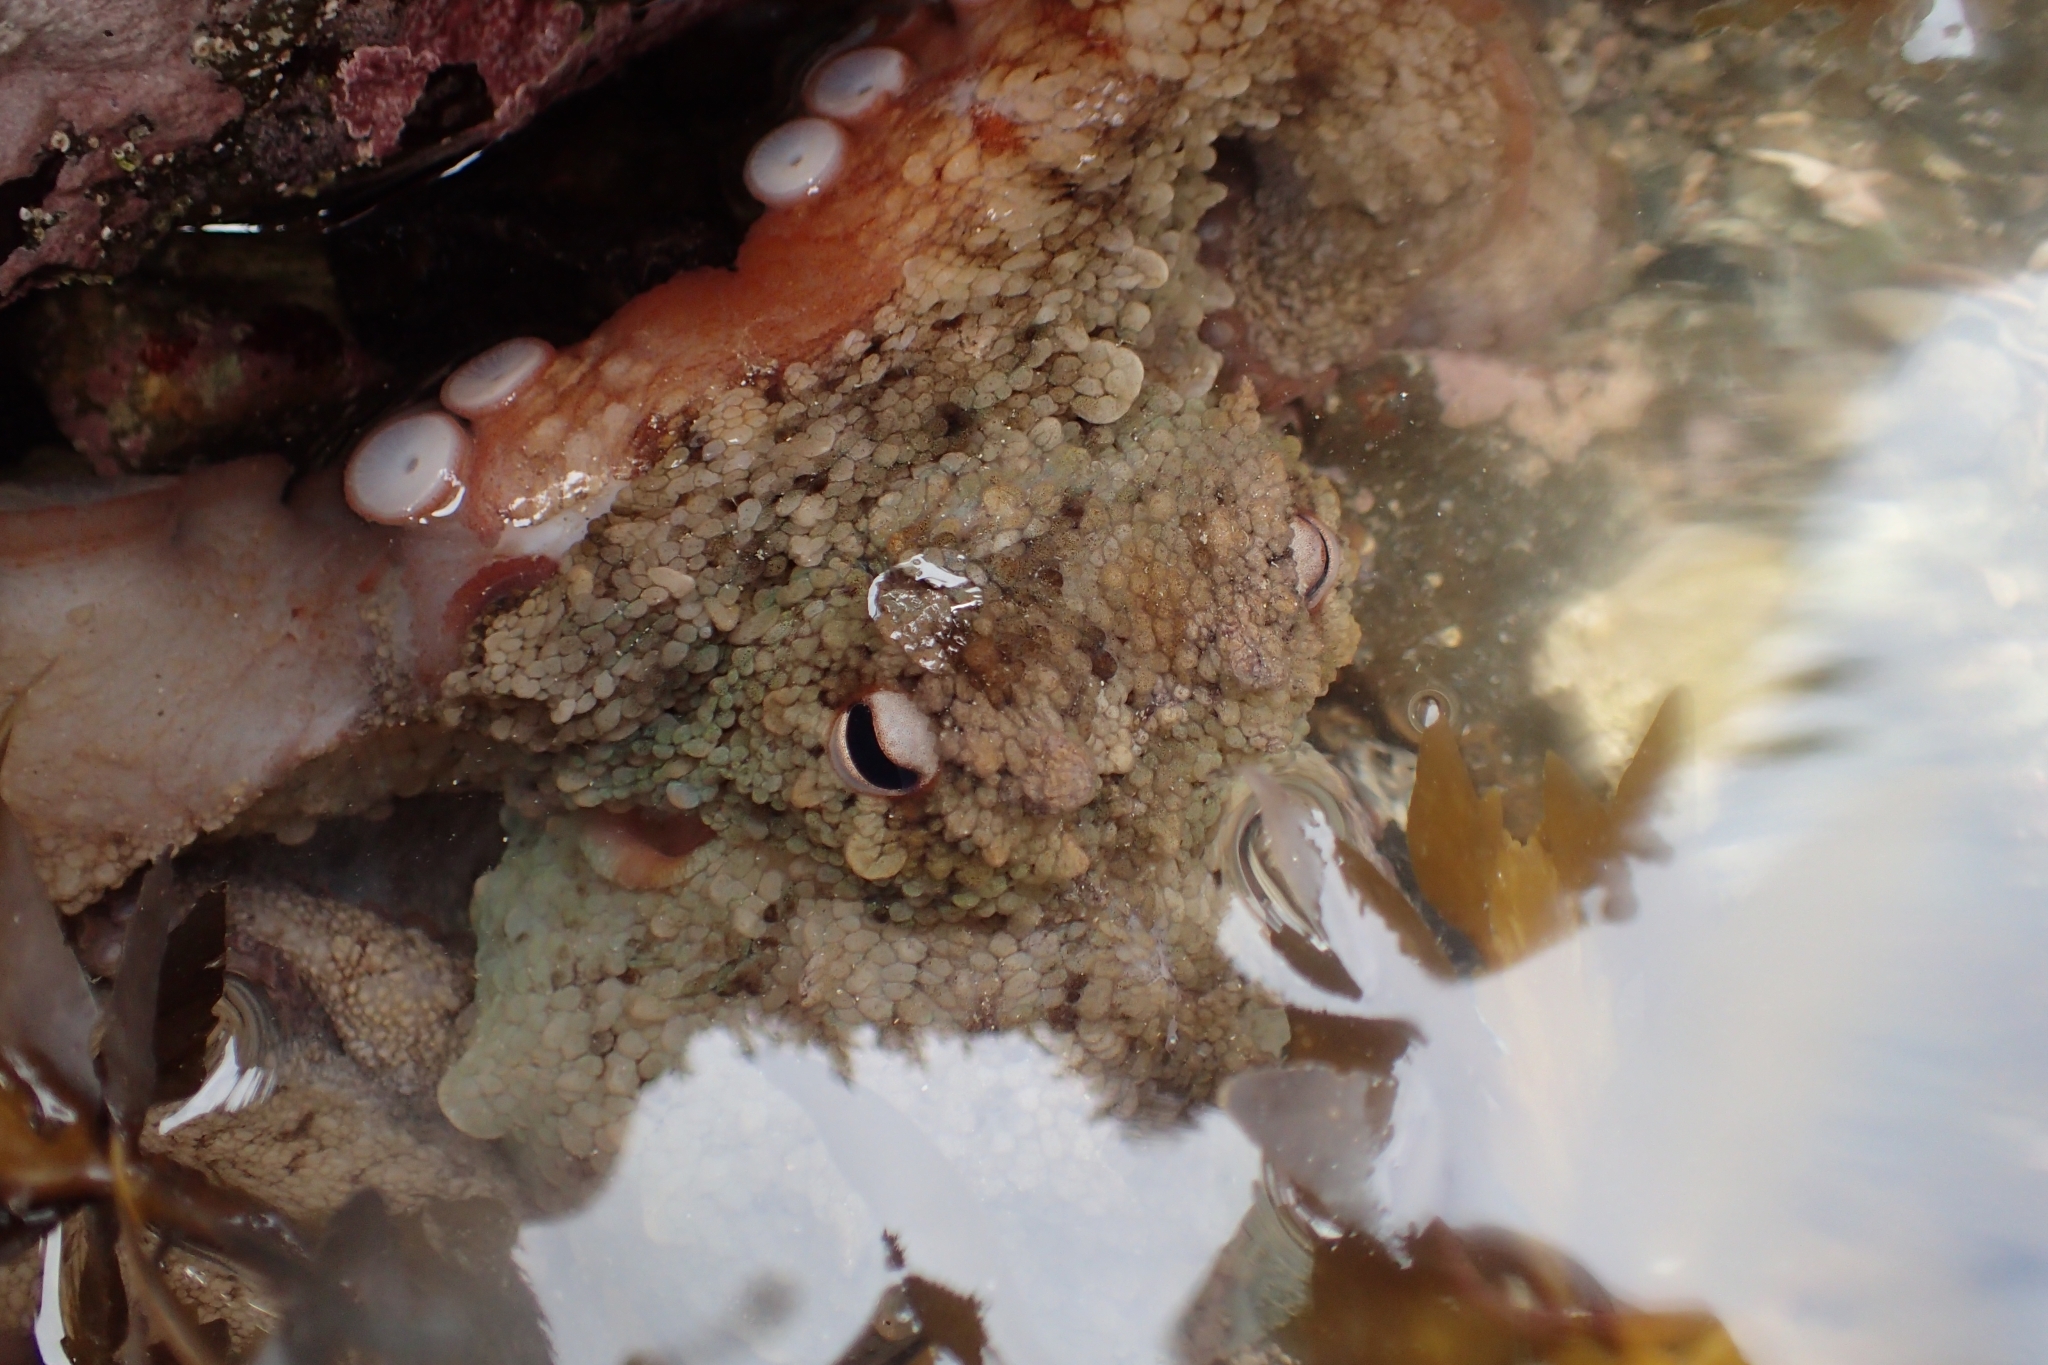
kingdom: Animalia
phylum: Mollusca
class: Cephalopoda
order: Octopoda
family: Octopodidae
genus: Octopus
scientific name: Octopus tetricus
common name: Sydney octopus
